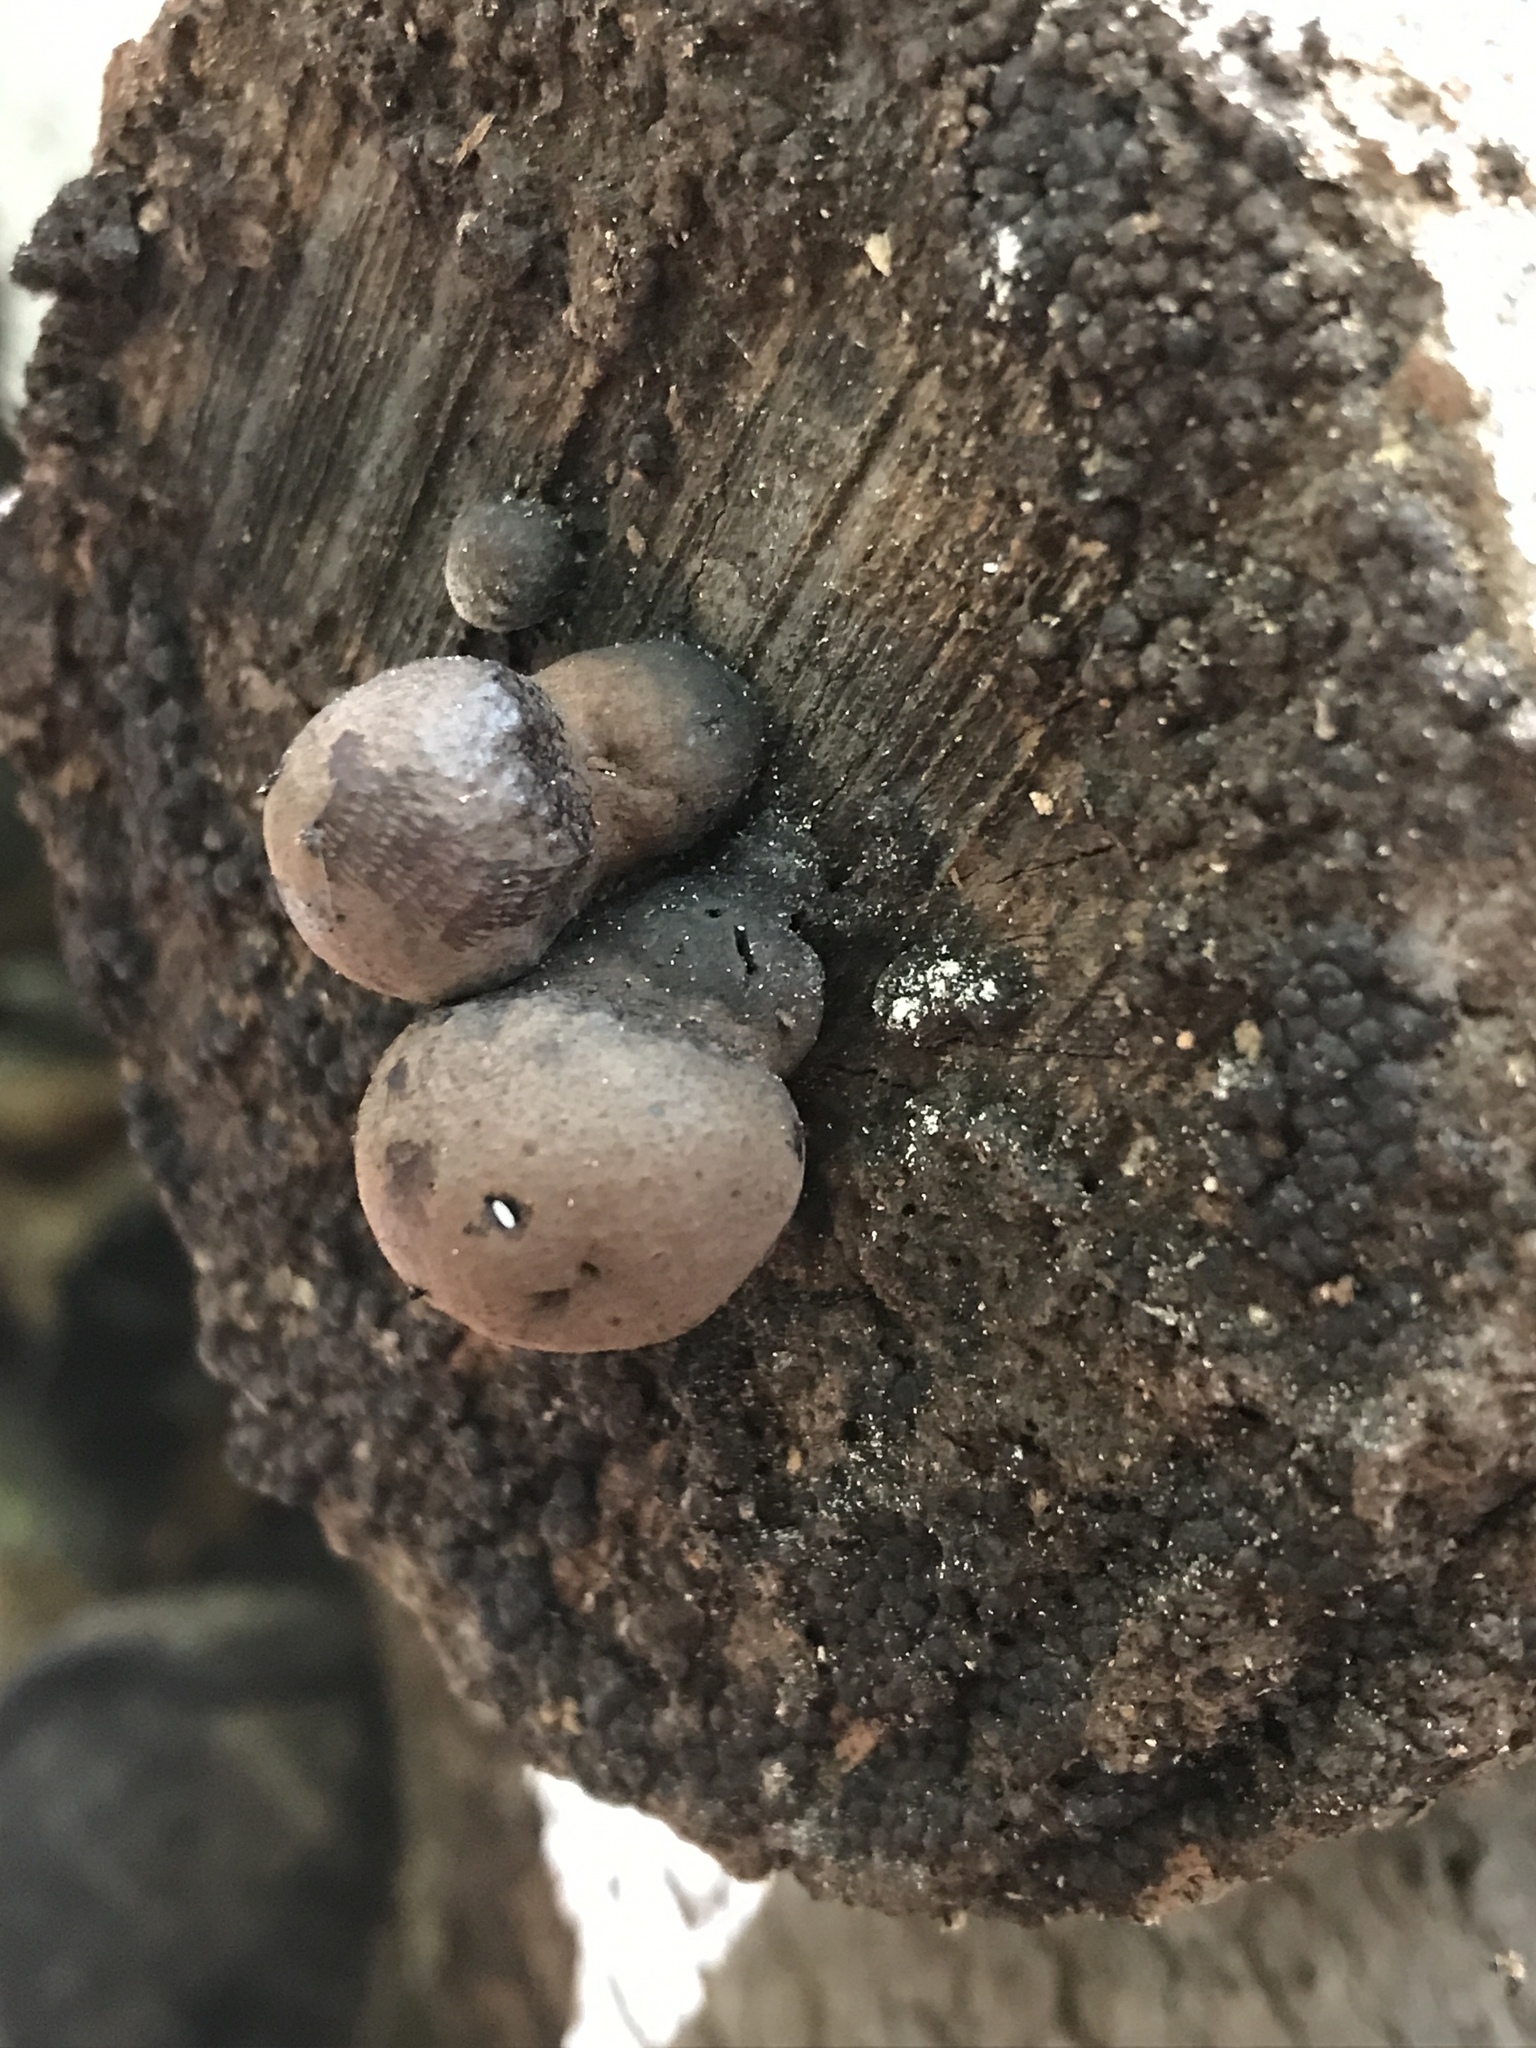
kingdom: Fungi
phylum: Ascomycota
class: Sordariomycetes
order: Xylariales
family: Hypoxylaceae
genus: Daldinia
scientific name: Daldinia childiae
